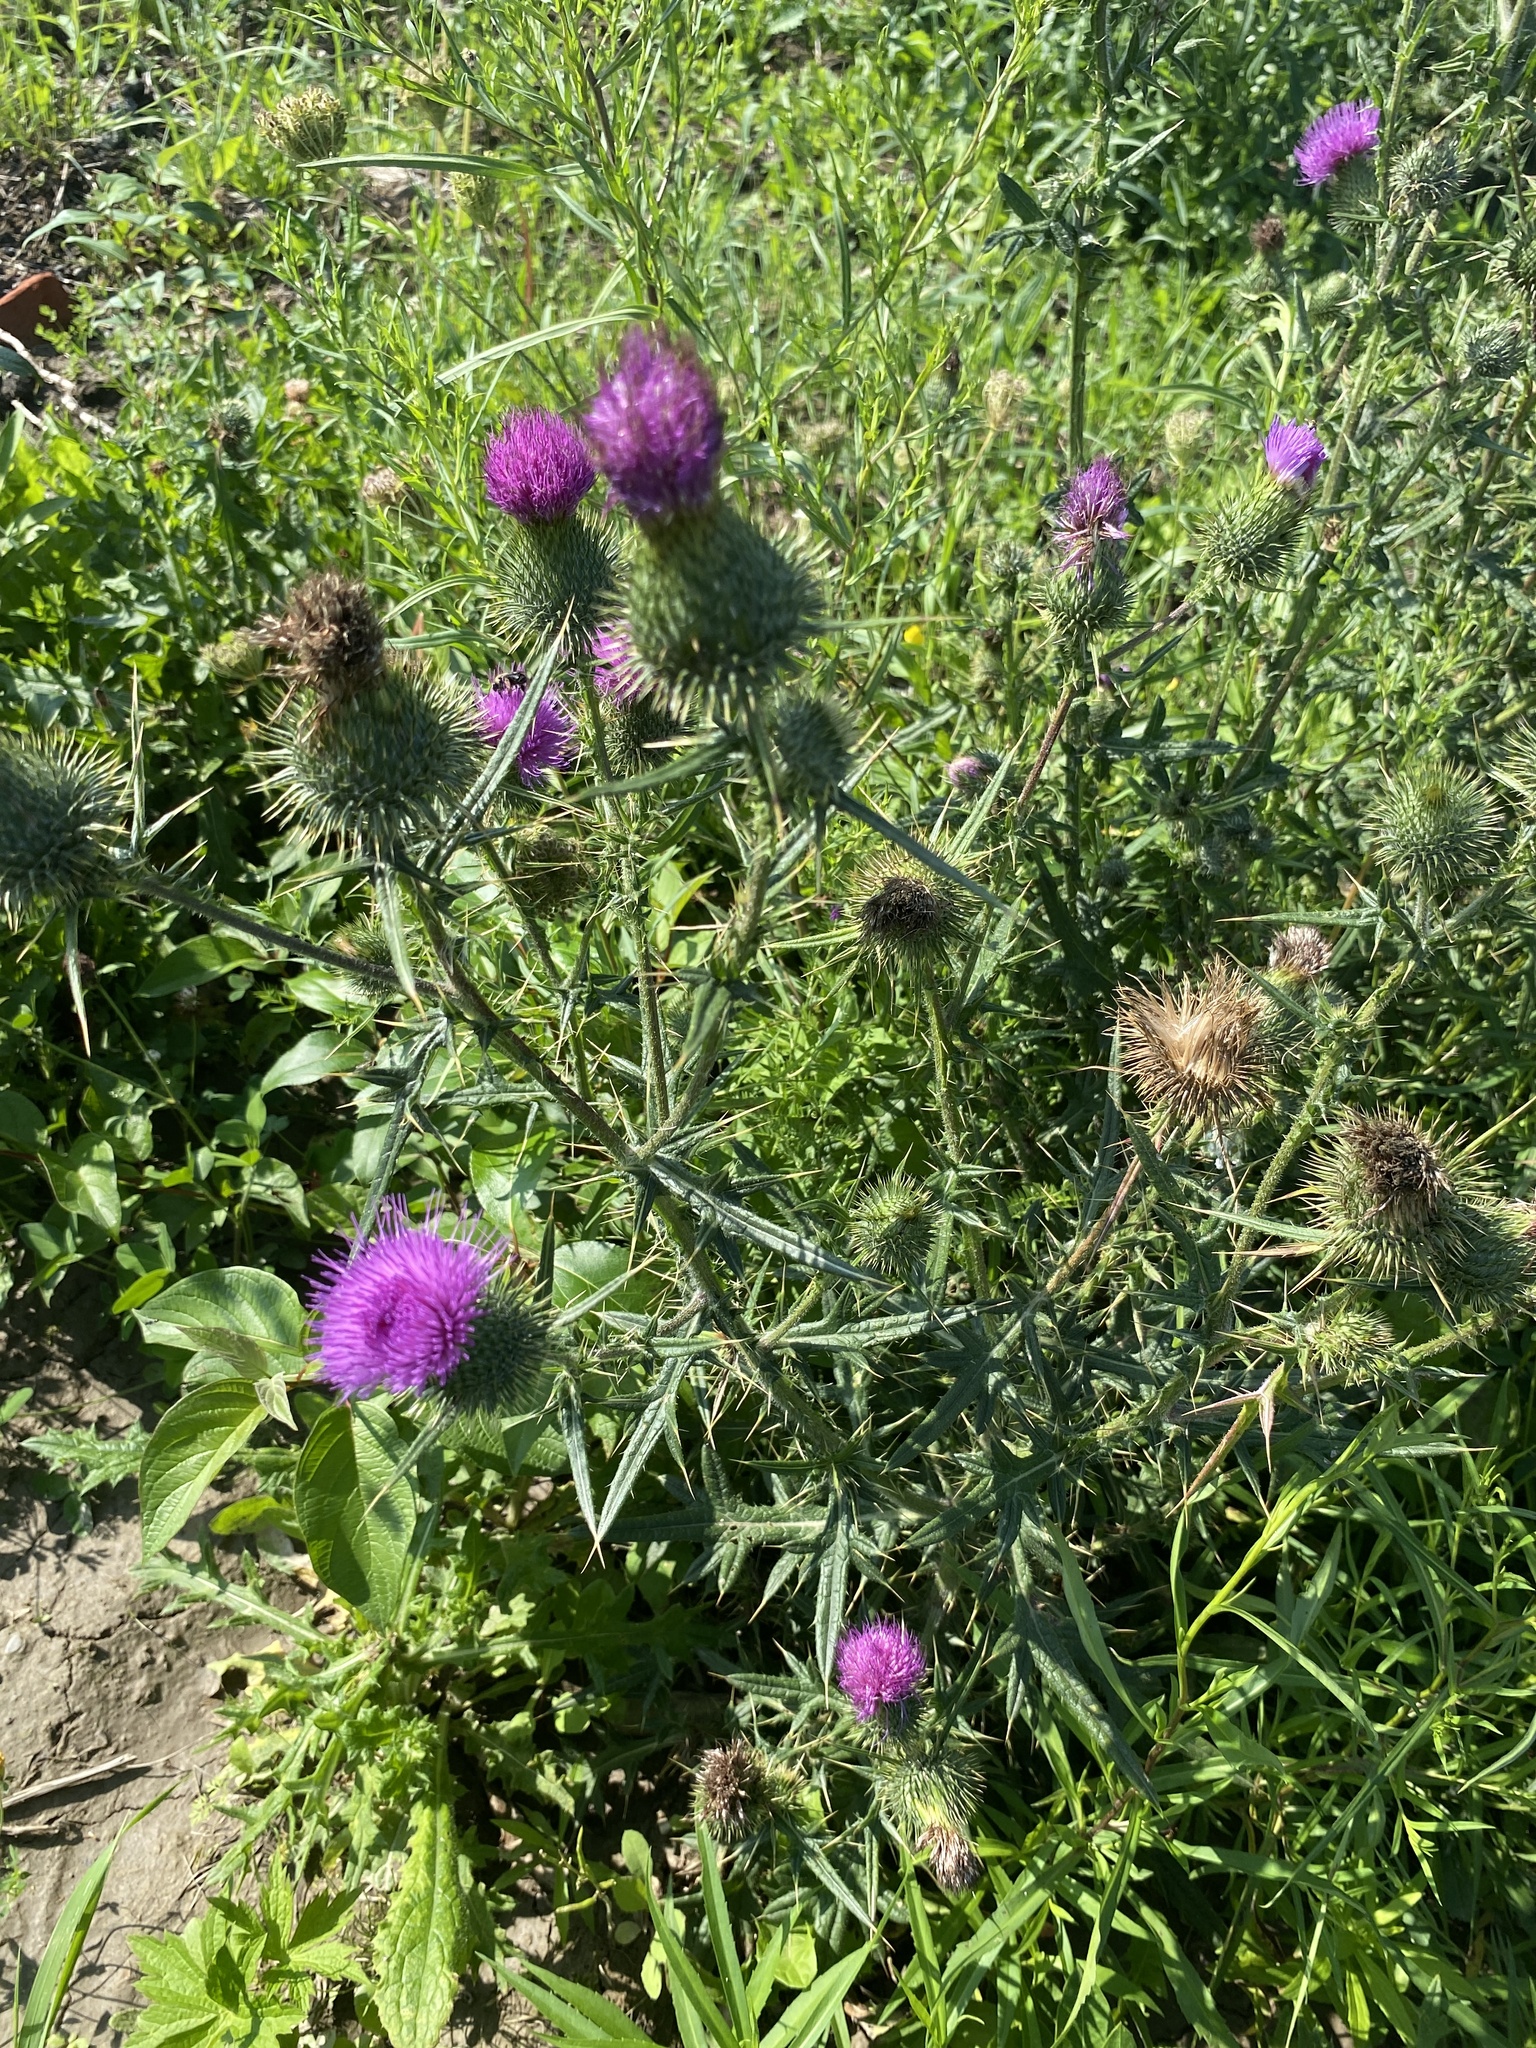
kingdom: Plantae
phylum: Tracheophyta
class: Magnoliopsida
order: Asterales
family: Asteraceae
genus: Cirsium
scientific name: Cirsium vulgare
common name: Bull thistle
